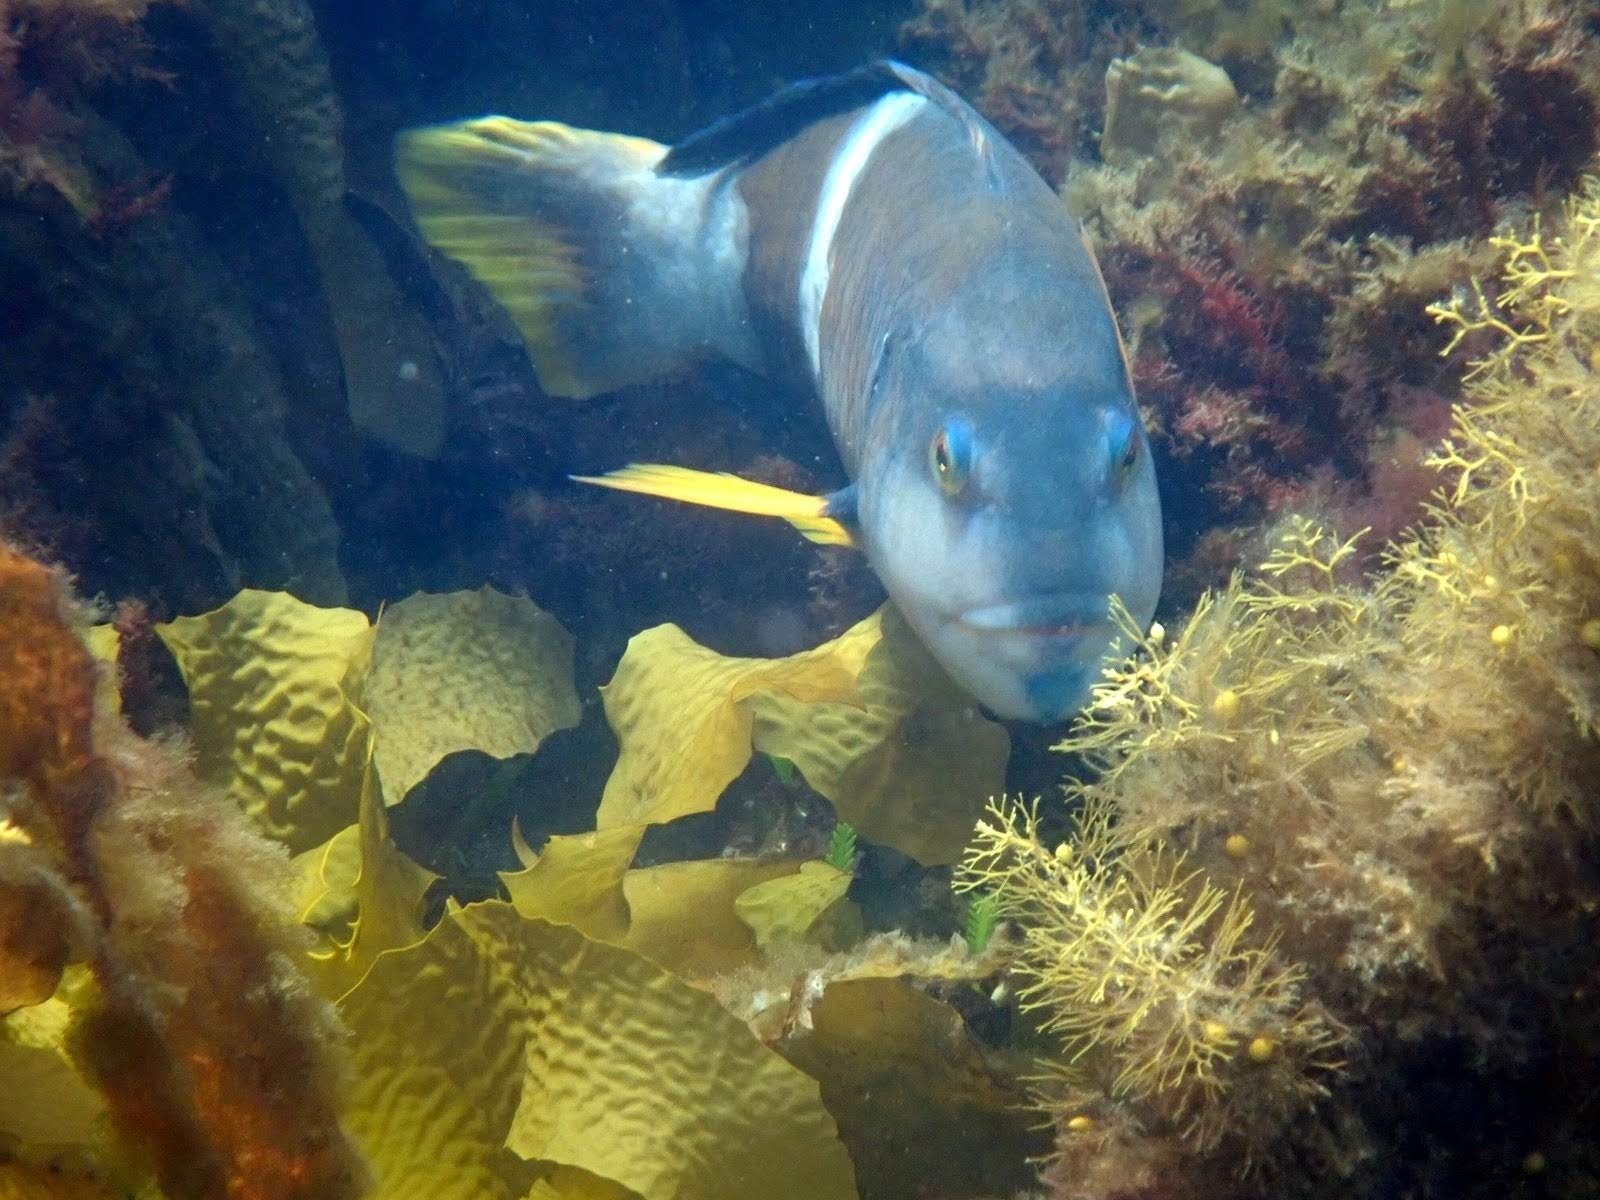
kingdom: Animalia
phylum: Chordata
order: Perciformes
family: Labridae
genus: Notolabrus
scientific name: Notolabrus tetricus
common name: Blue-throated parrotfish
